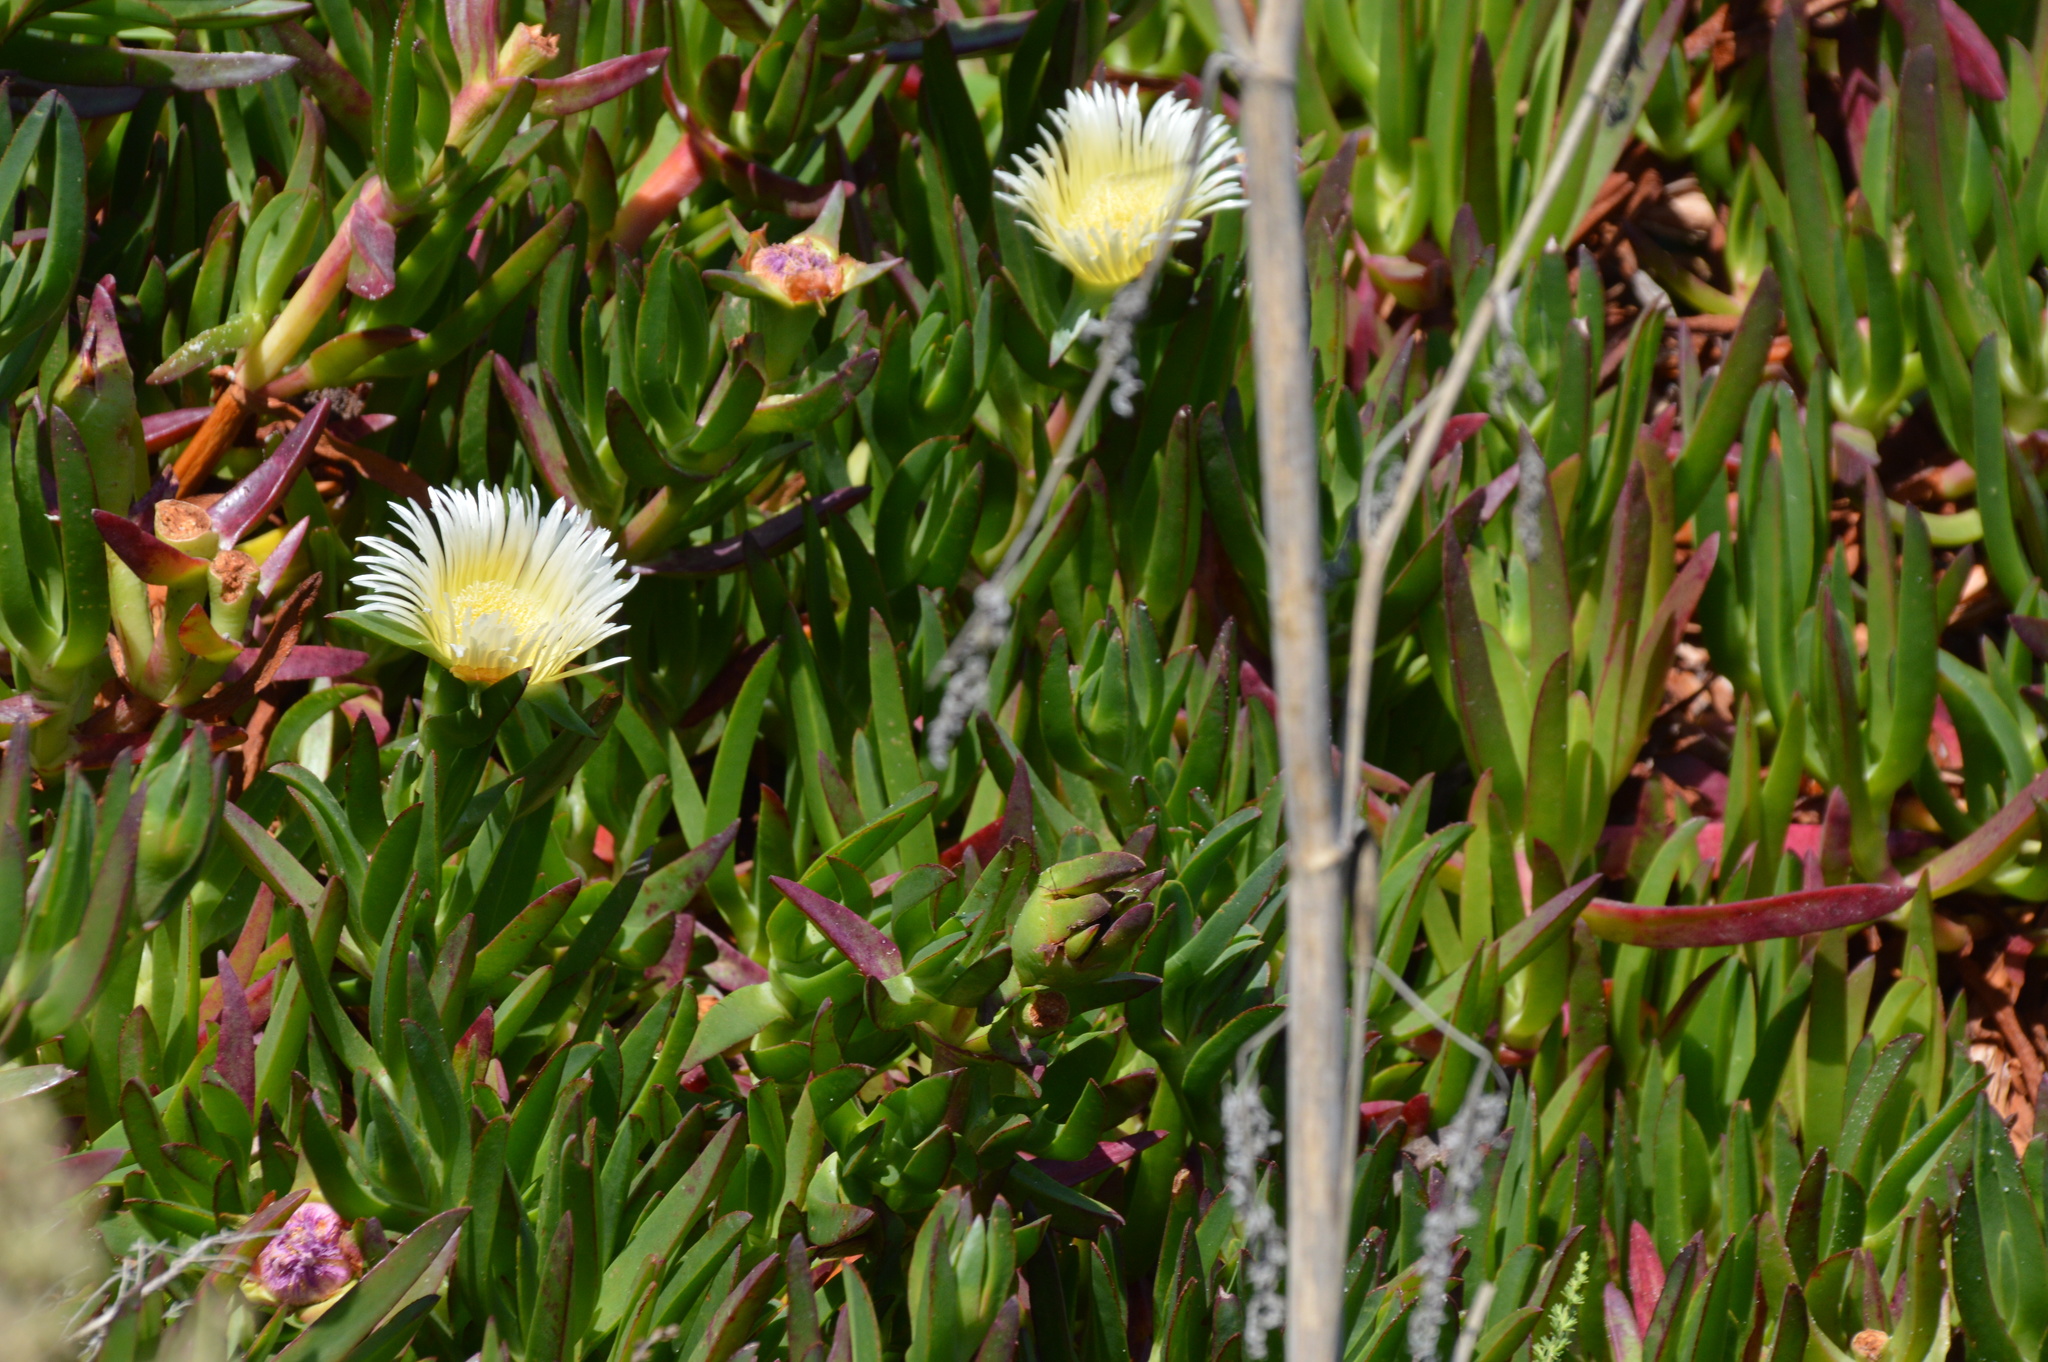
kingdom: Plantae
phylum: Tracheophyta
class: Magnoliopsida
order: Caryophyllales
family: Aizoaceae
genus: Carpobrotus
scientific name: Carpobrotus edulis
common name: Hottentot-fig
